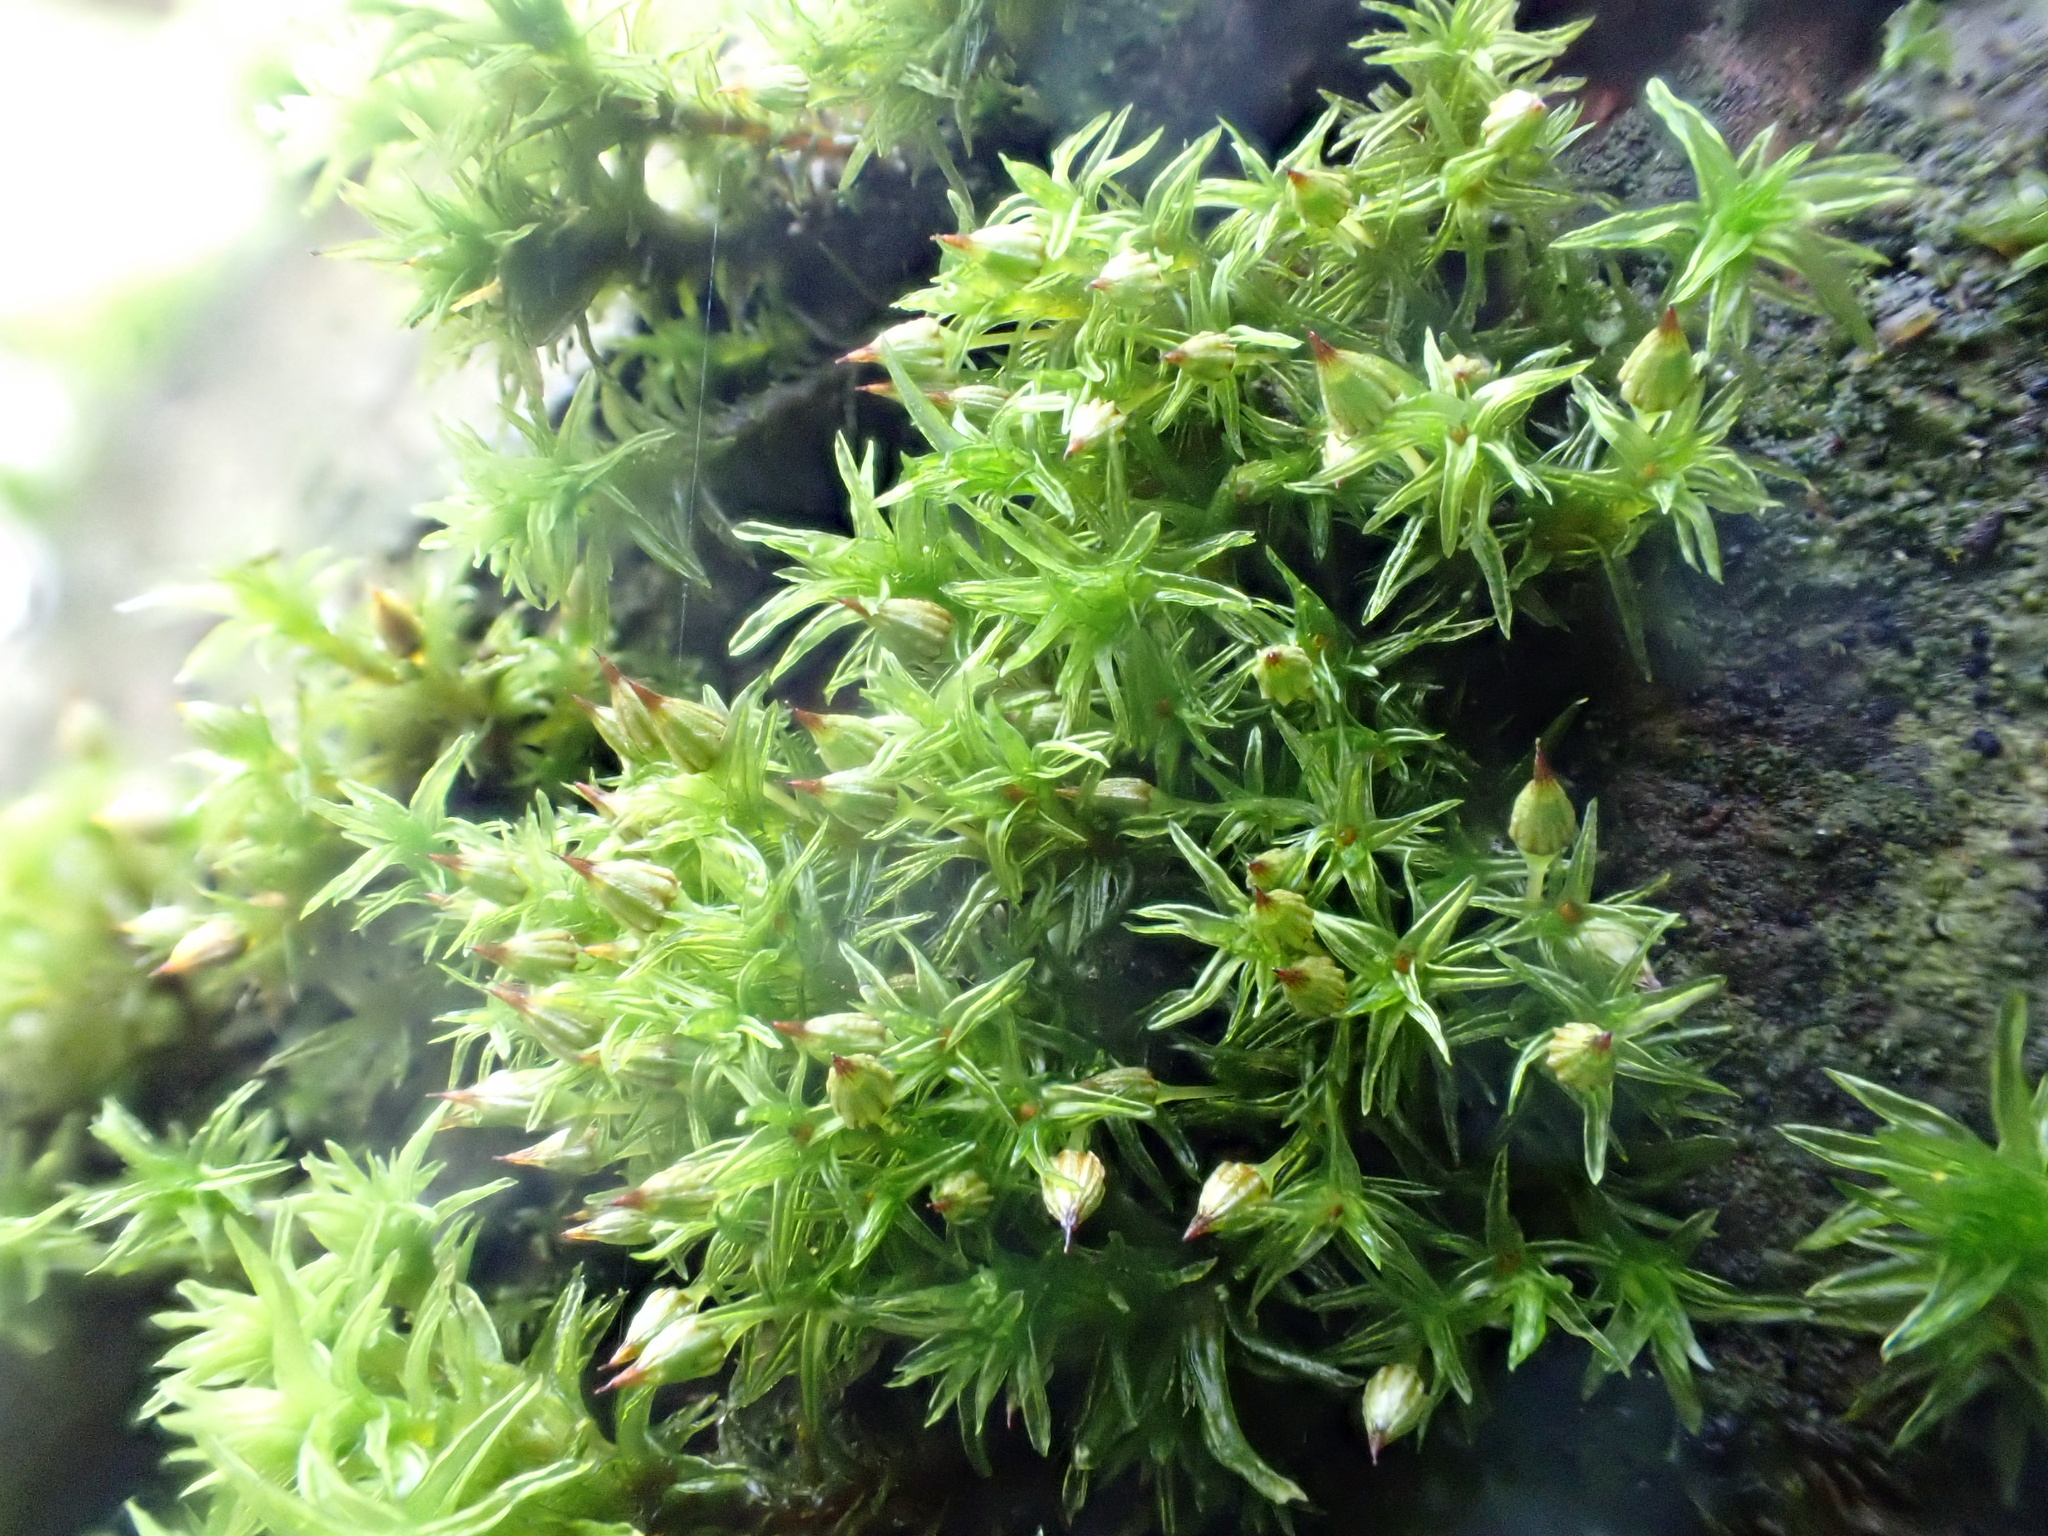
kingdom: Plantae
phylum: Bryophyta
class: Bryopsida
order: Orthotrichales
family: Orthotrichaceae
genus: Orthotrichum
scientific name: Orthotrichum pulchellum
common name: Elegant bristle-moss
